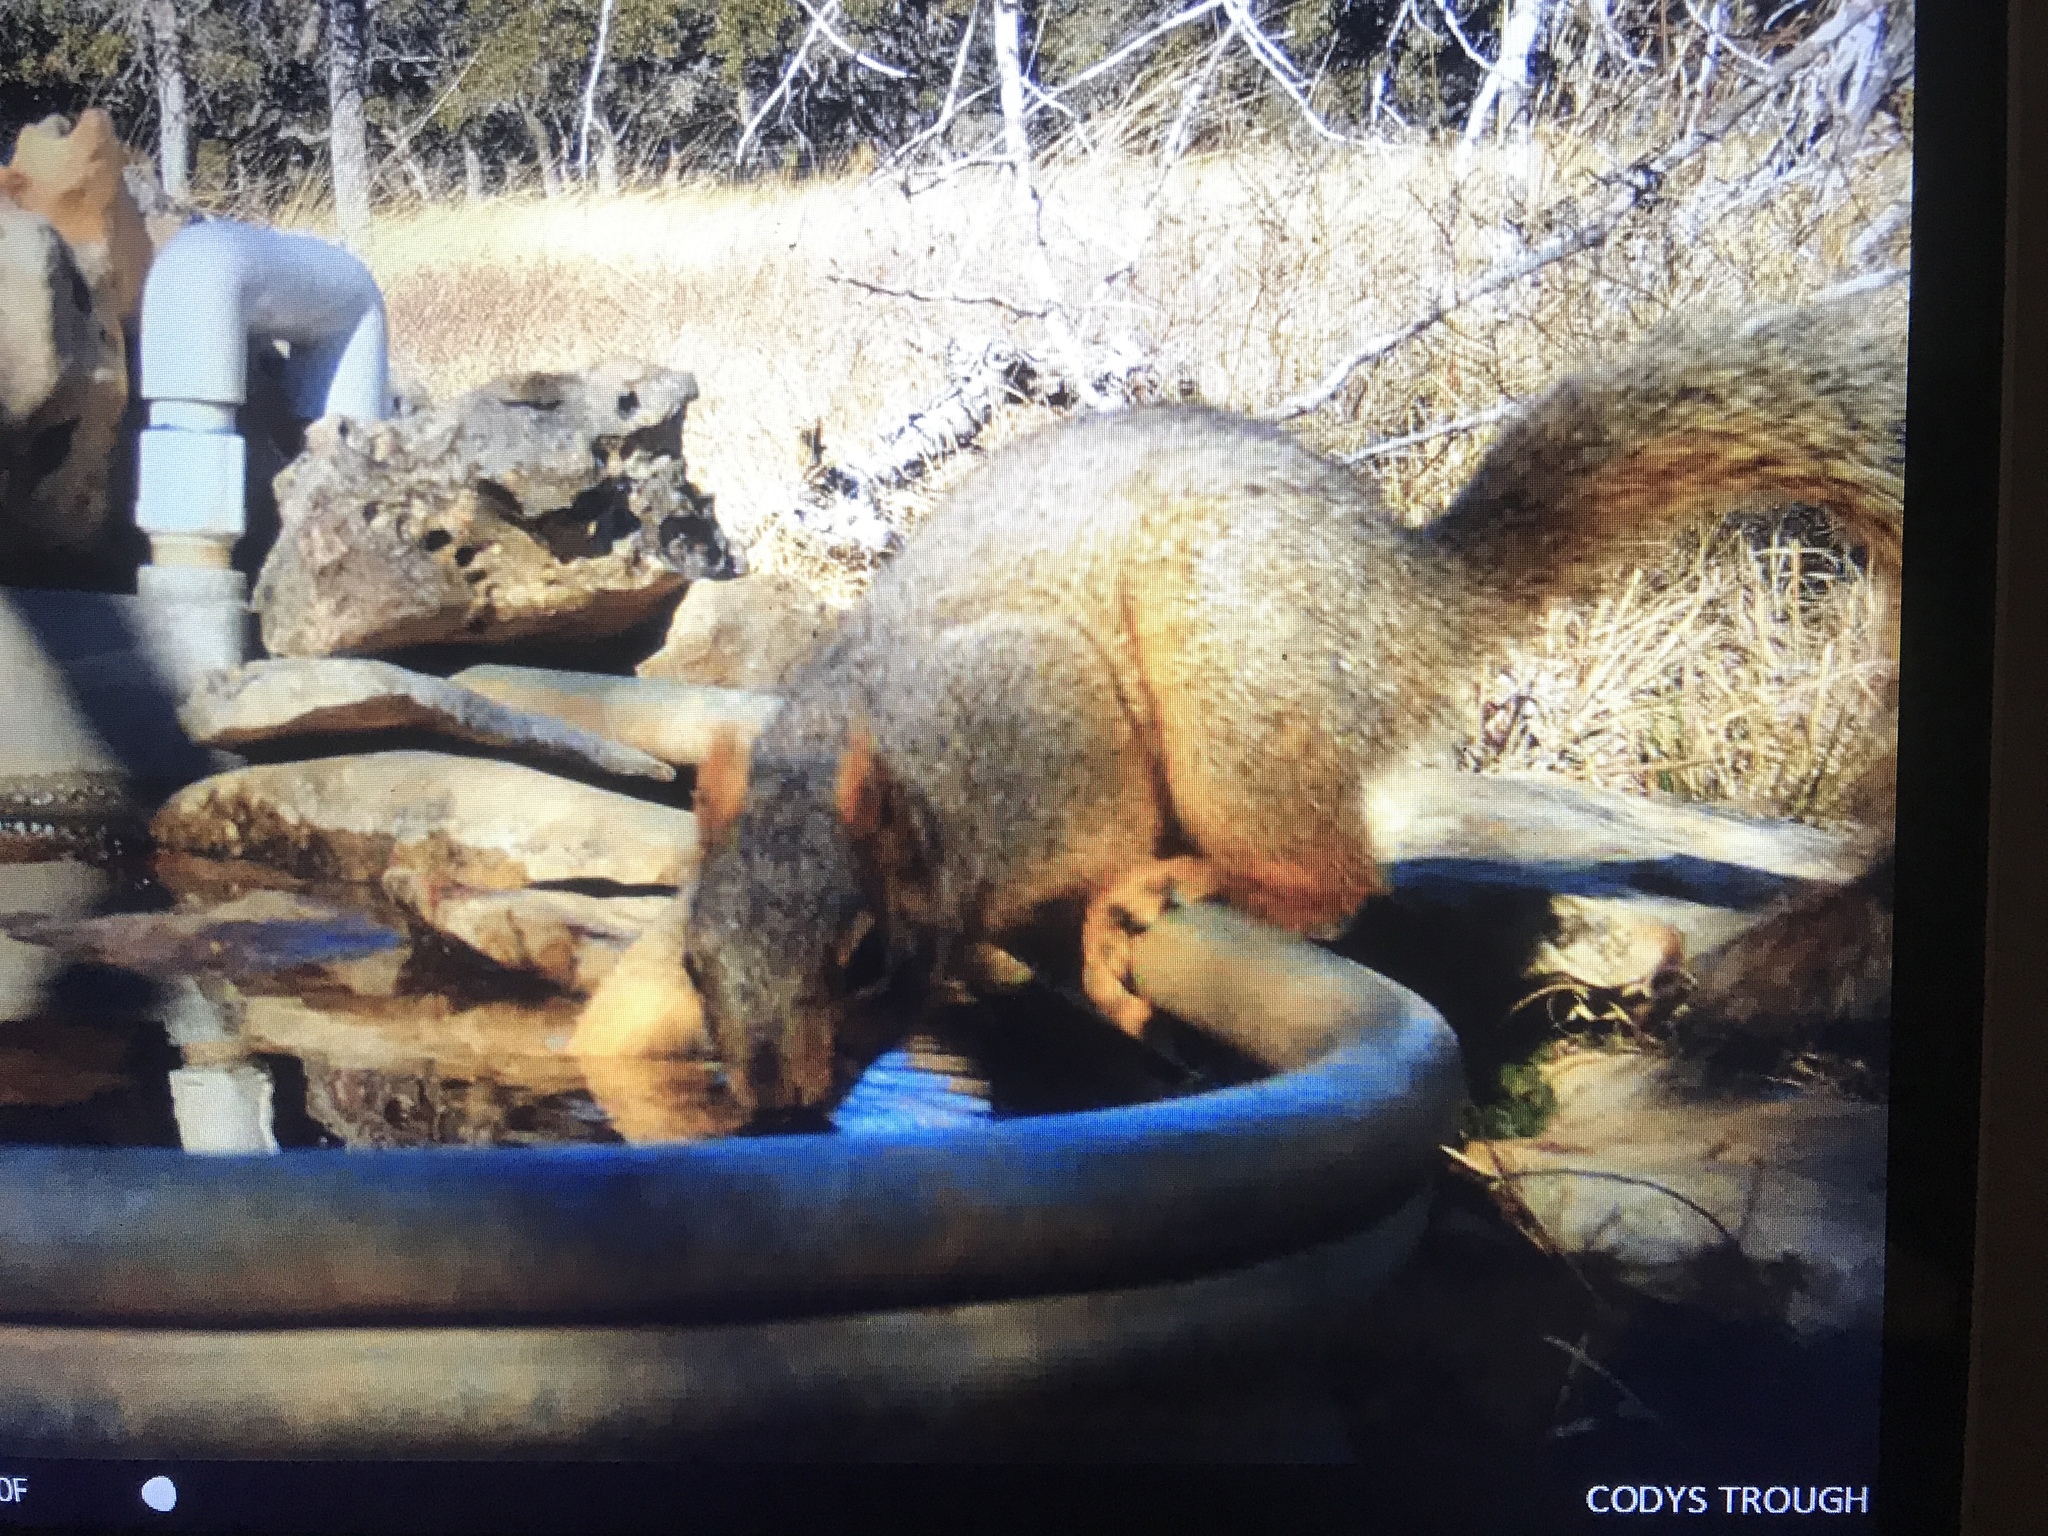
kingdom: Animalia
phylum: Chordata
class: Mammalia
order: Rodentia
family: Sciuridae
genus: Sciurus
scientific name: Sciurus niger
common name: Fox squirrel
